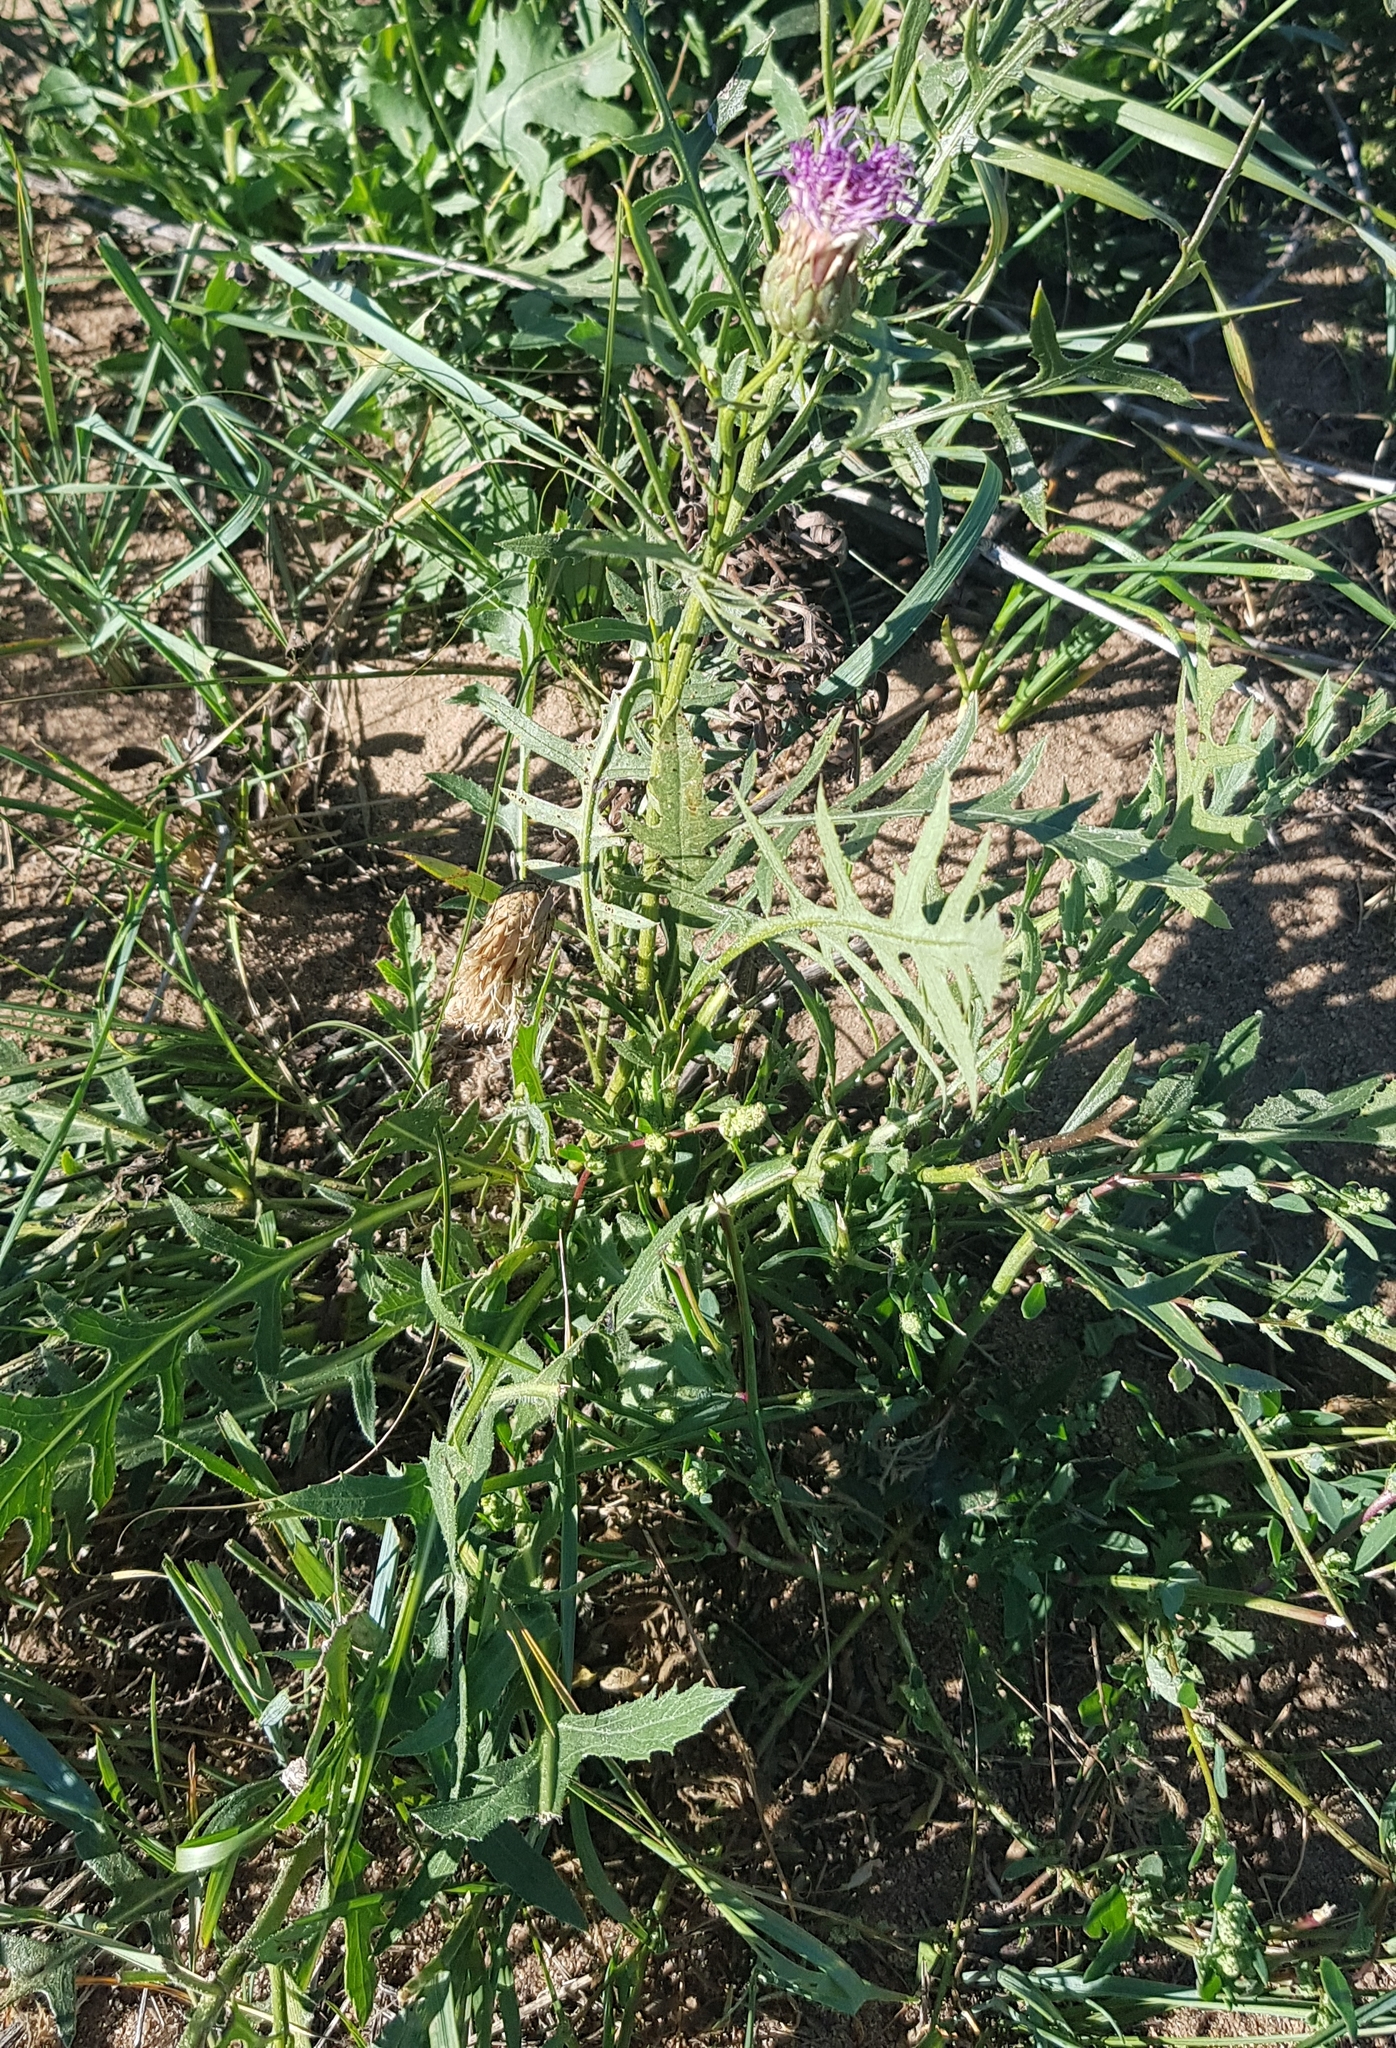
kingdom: Plantae
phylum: Tracheophyta
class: Magnoliopsida
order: Asterales
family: Asteraceae
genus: Klasea
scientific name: Klasea centauroides
